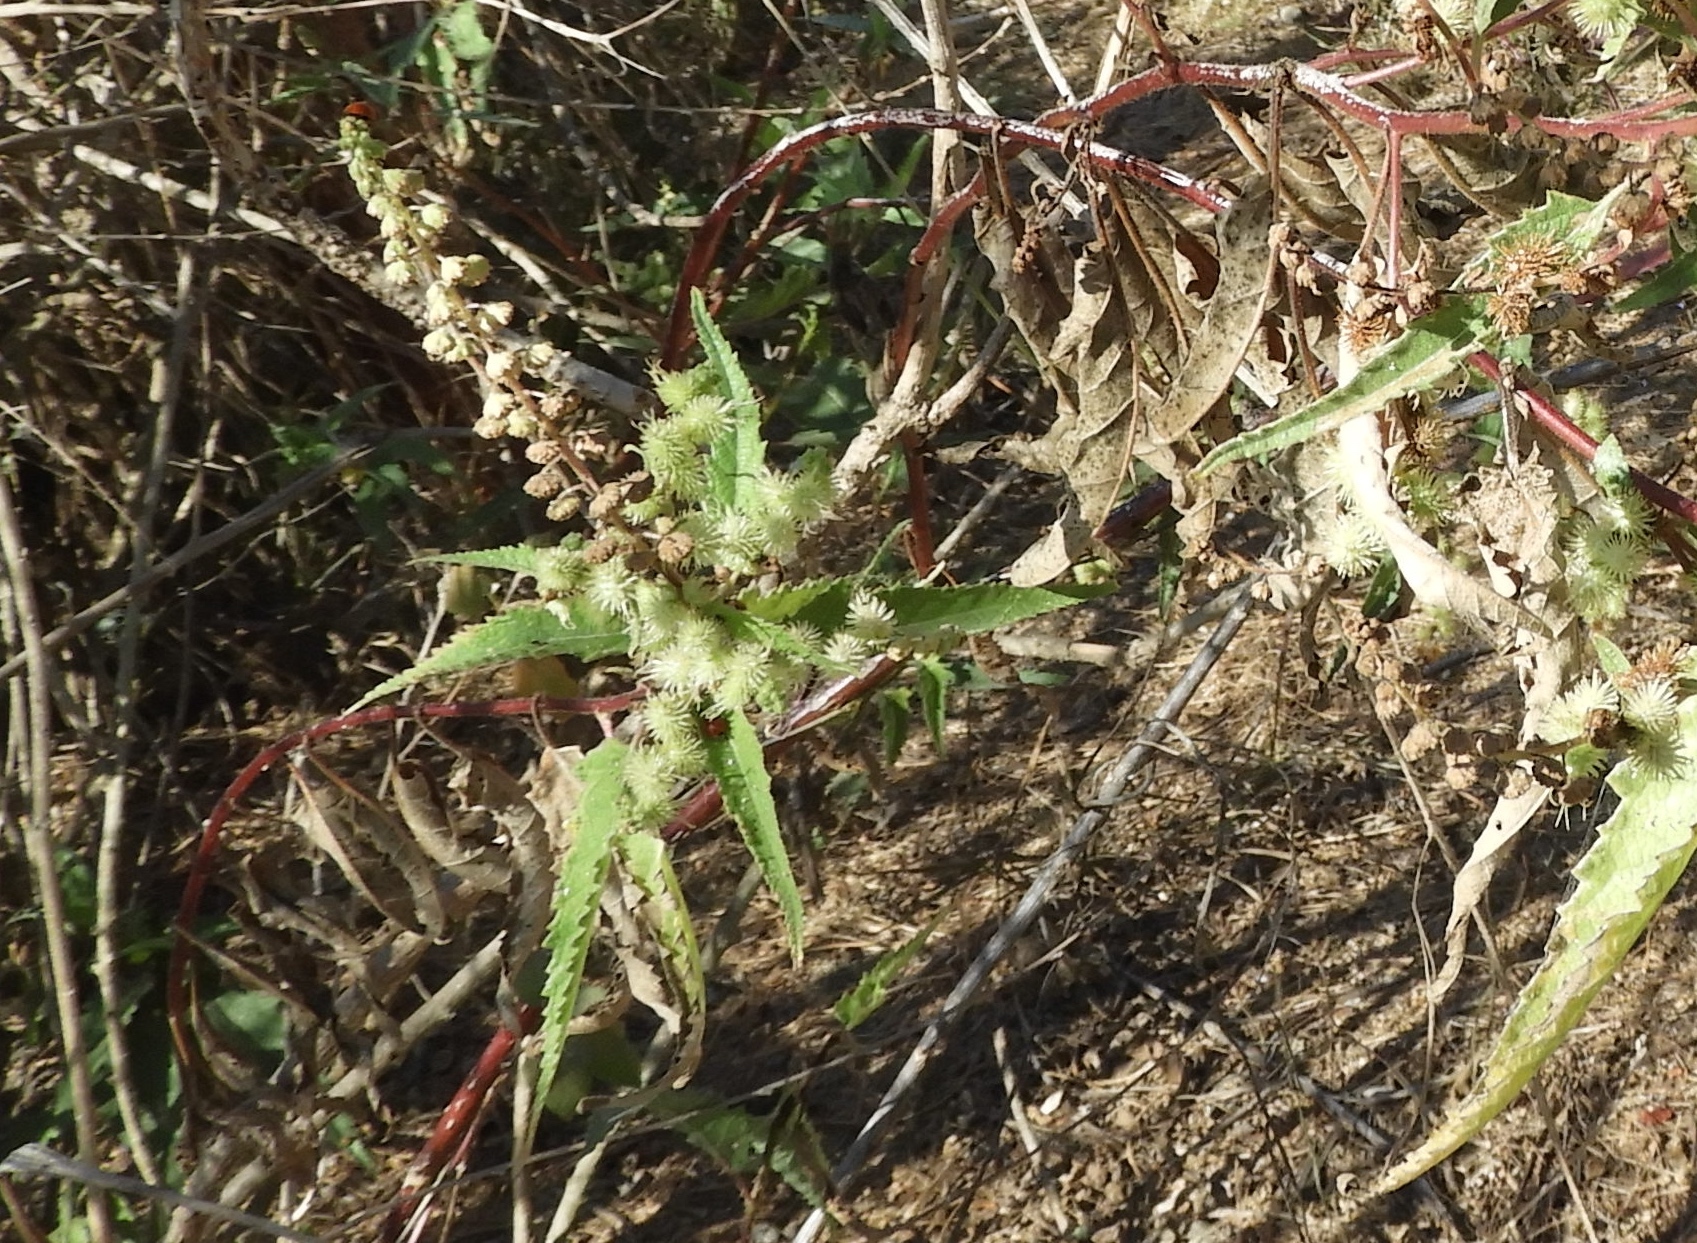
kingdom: Plantae
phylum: Tracheophyta
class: Magnoliopsida
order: Asterales
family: Asteraceae
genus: Ambrosia
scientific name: Ambrosia ambrosioides
